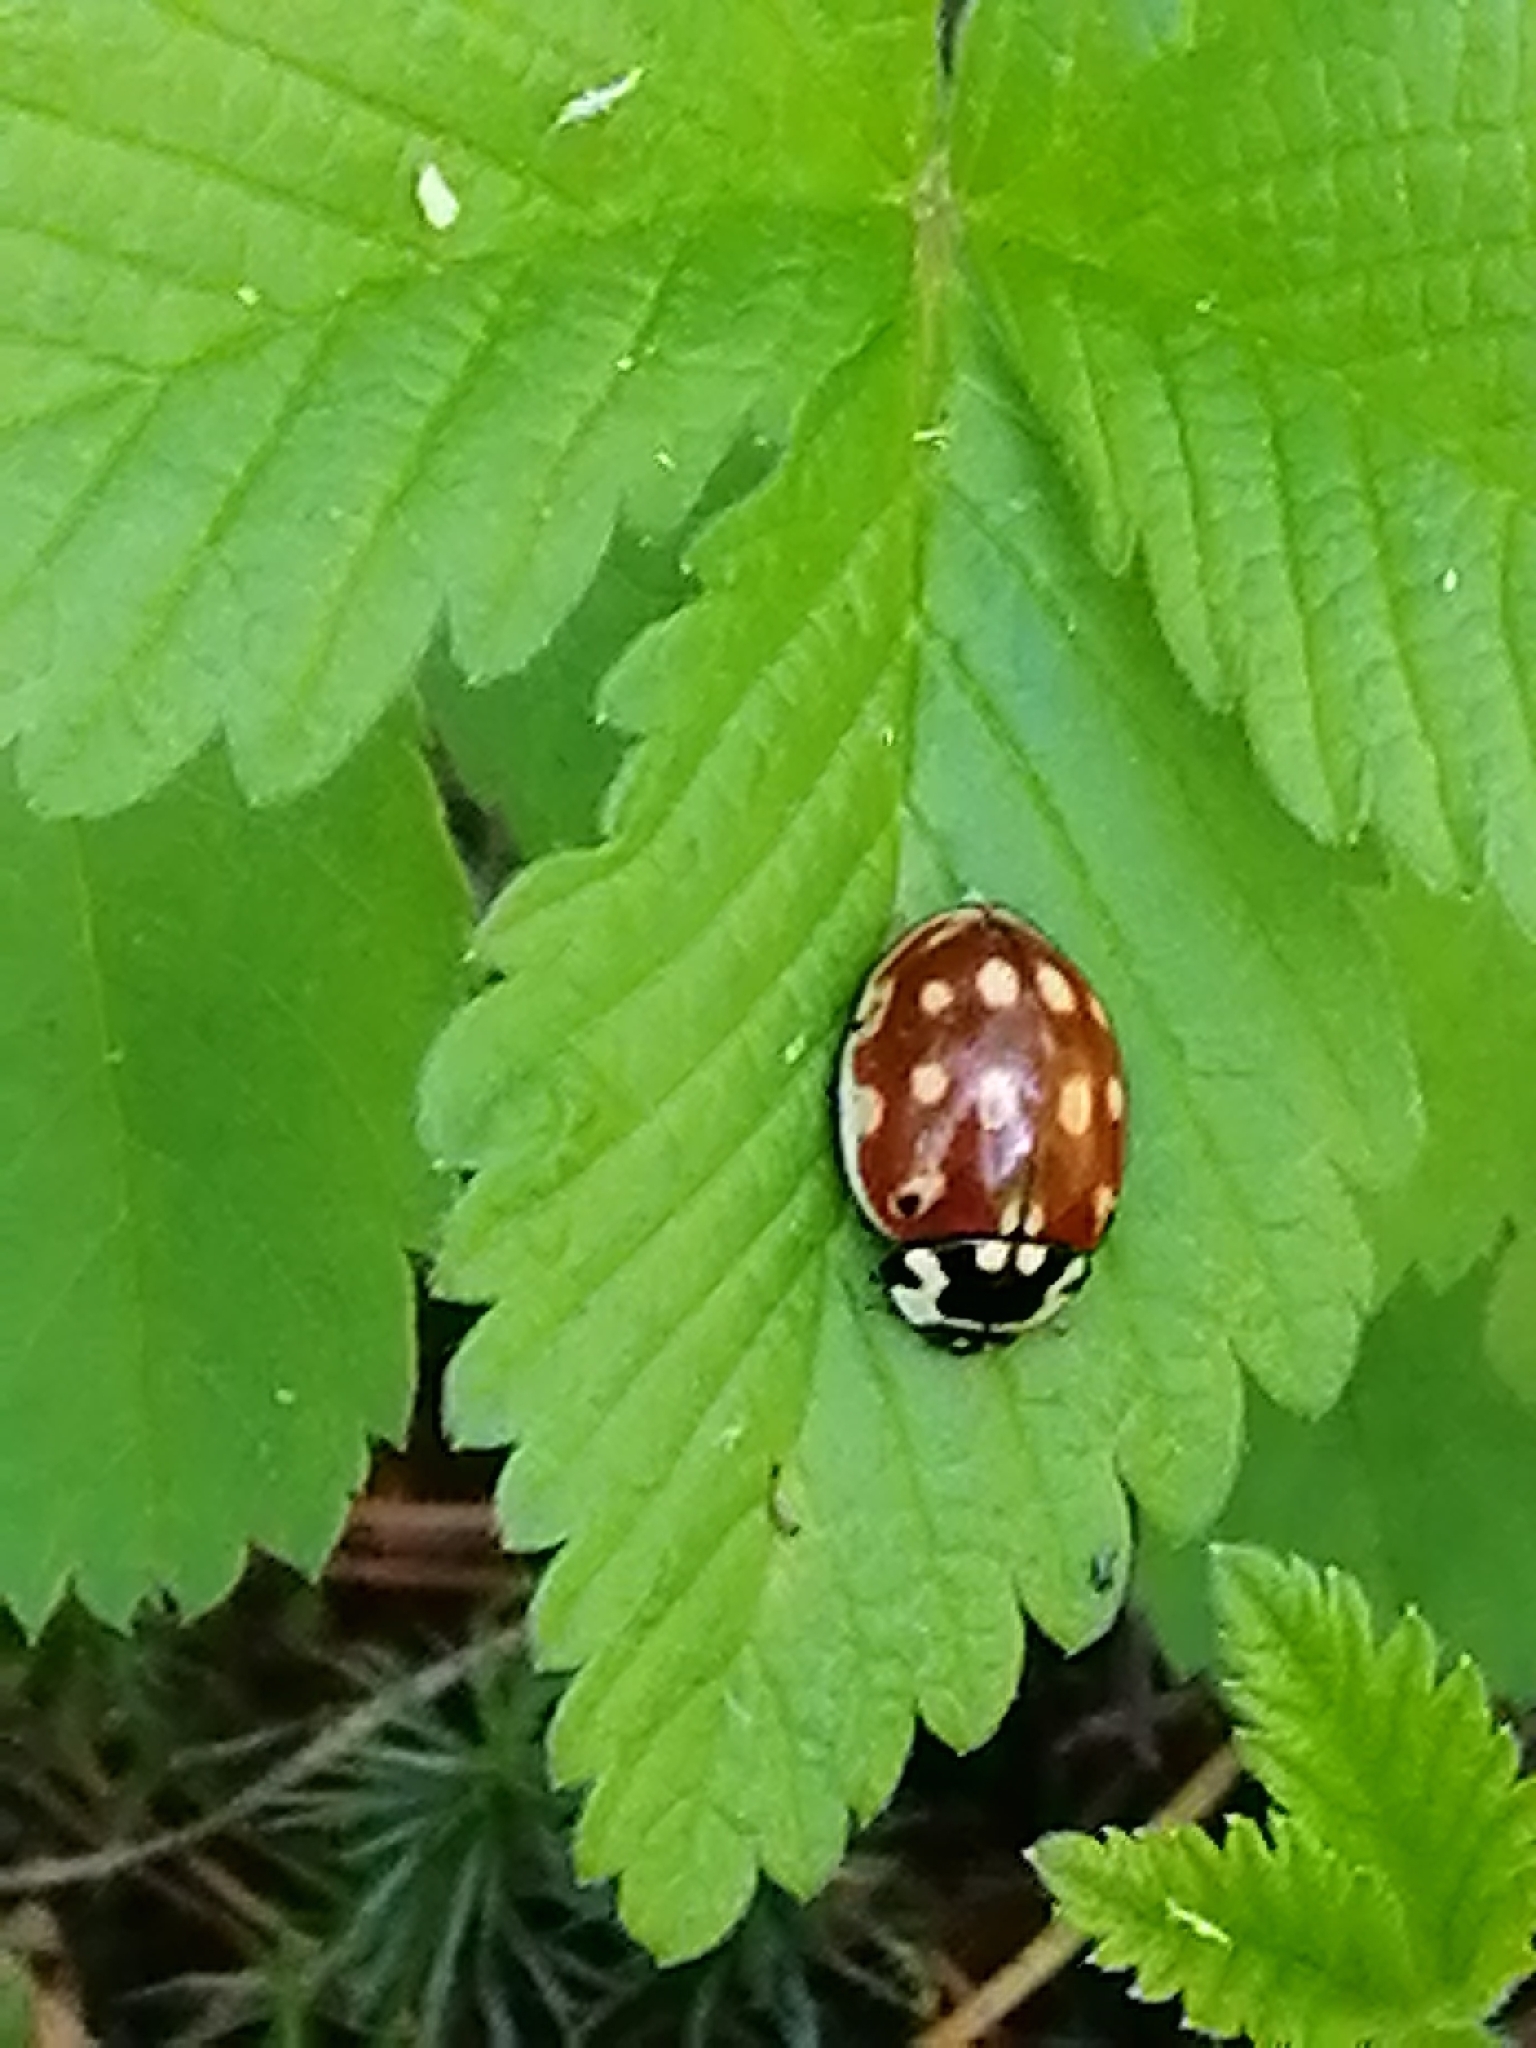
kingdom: Animalia
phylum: Arthropoda
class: Insecta
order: Coleoptera
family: Coccinellidae
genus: Anatis
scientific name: Anatis ocellata
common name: Eyed ladybird
